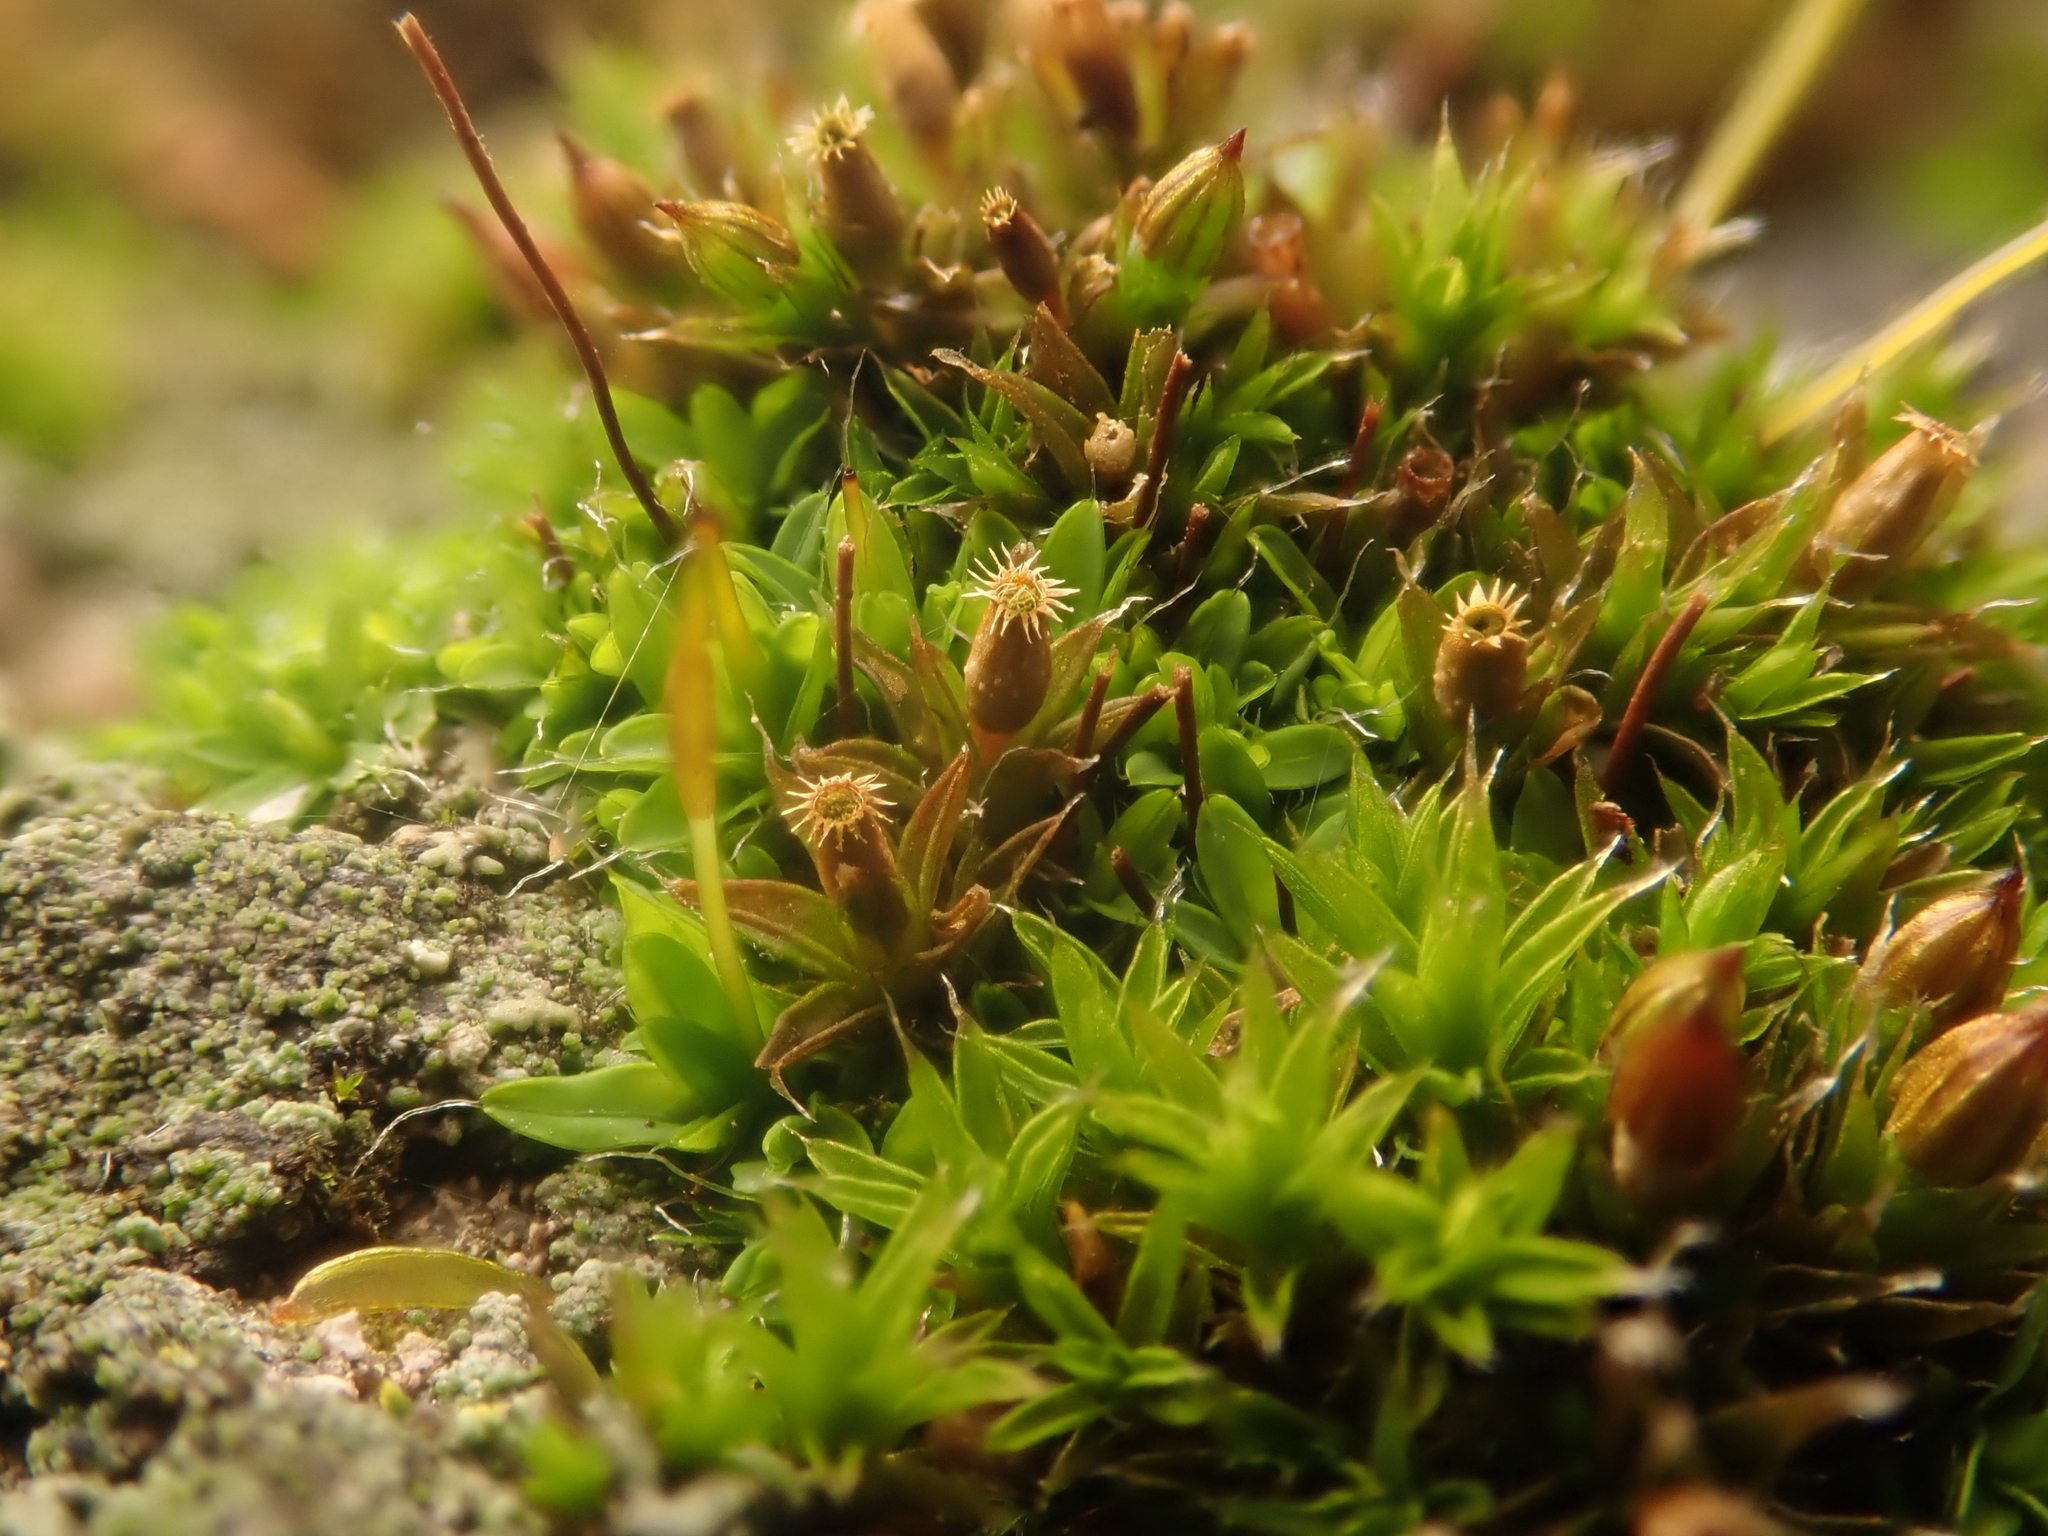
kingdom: Plantae
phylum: Bryophyta
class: Bryopsida
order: Orthotrichales
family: Orthotrichaceae
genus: Orthotrichum
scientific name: Orthotrichum diaphanum
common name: White-tipped bristle-moss
